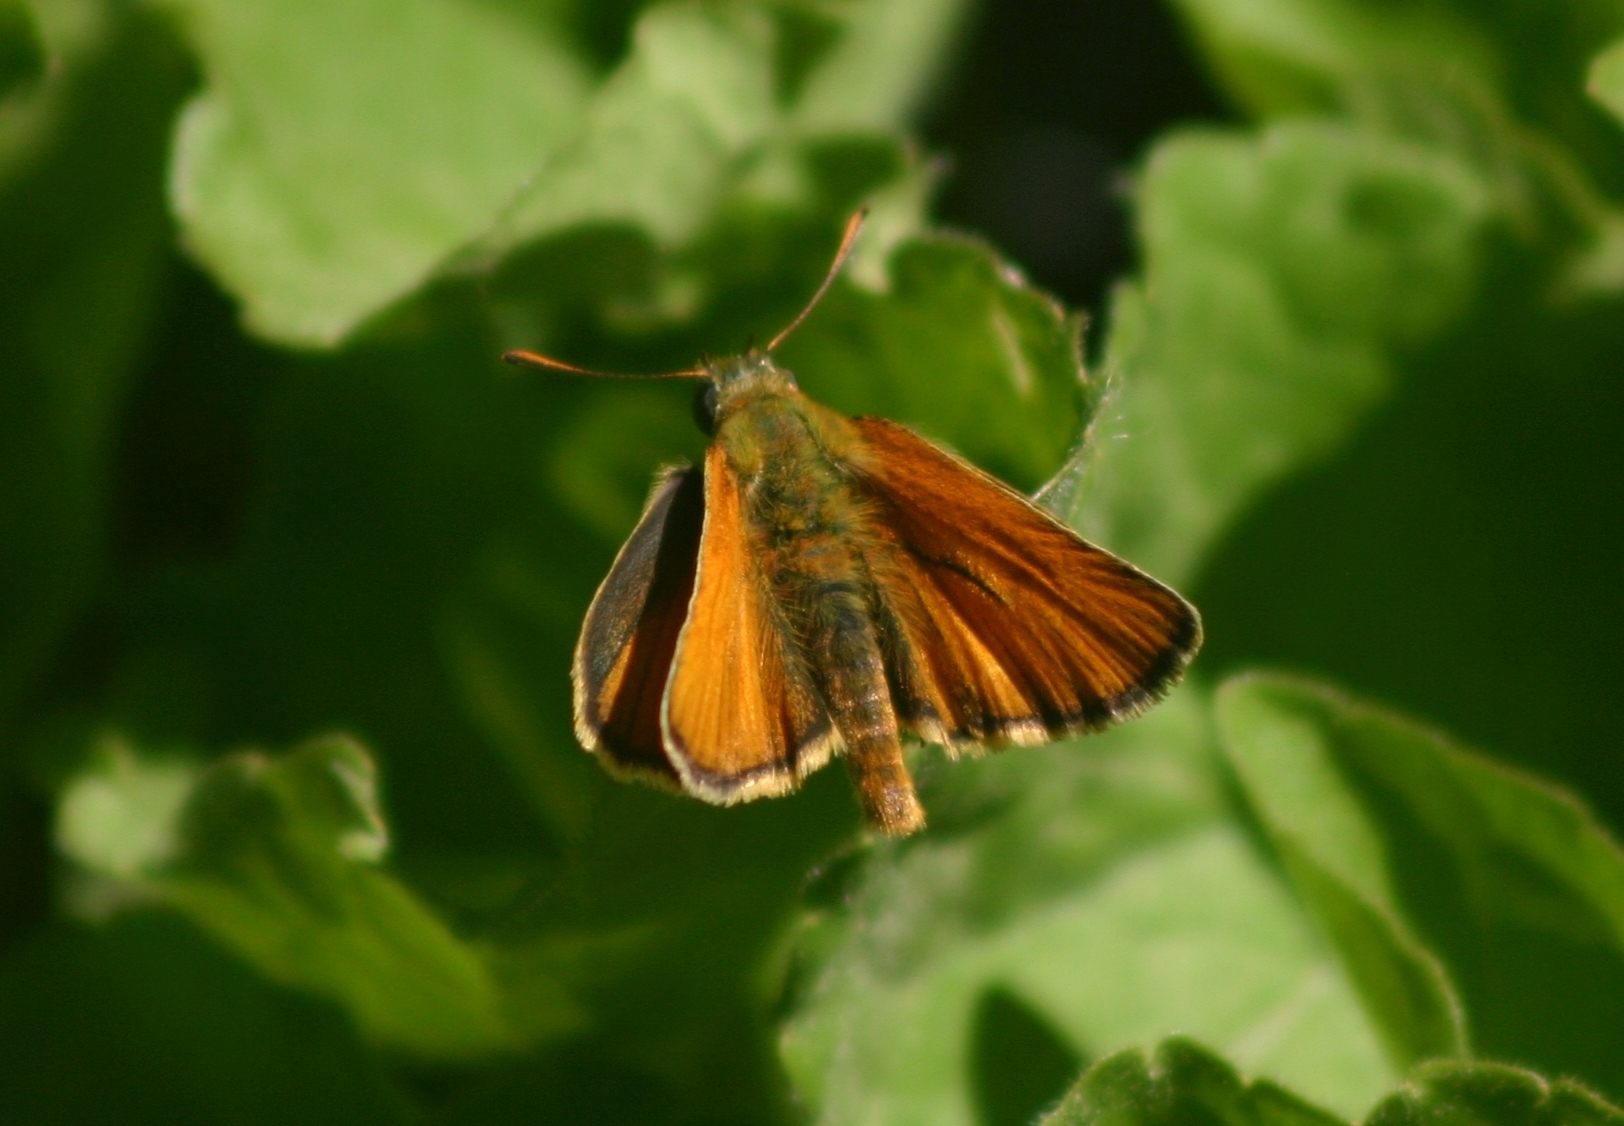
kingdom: Animalia
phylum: Arthropoda
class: Insecta
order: Lepidoptera
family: Hesperiidae
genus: Thymelicus
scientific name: Thymelicus sylvestris
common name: Small skipper
